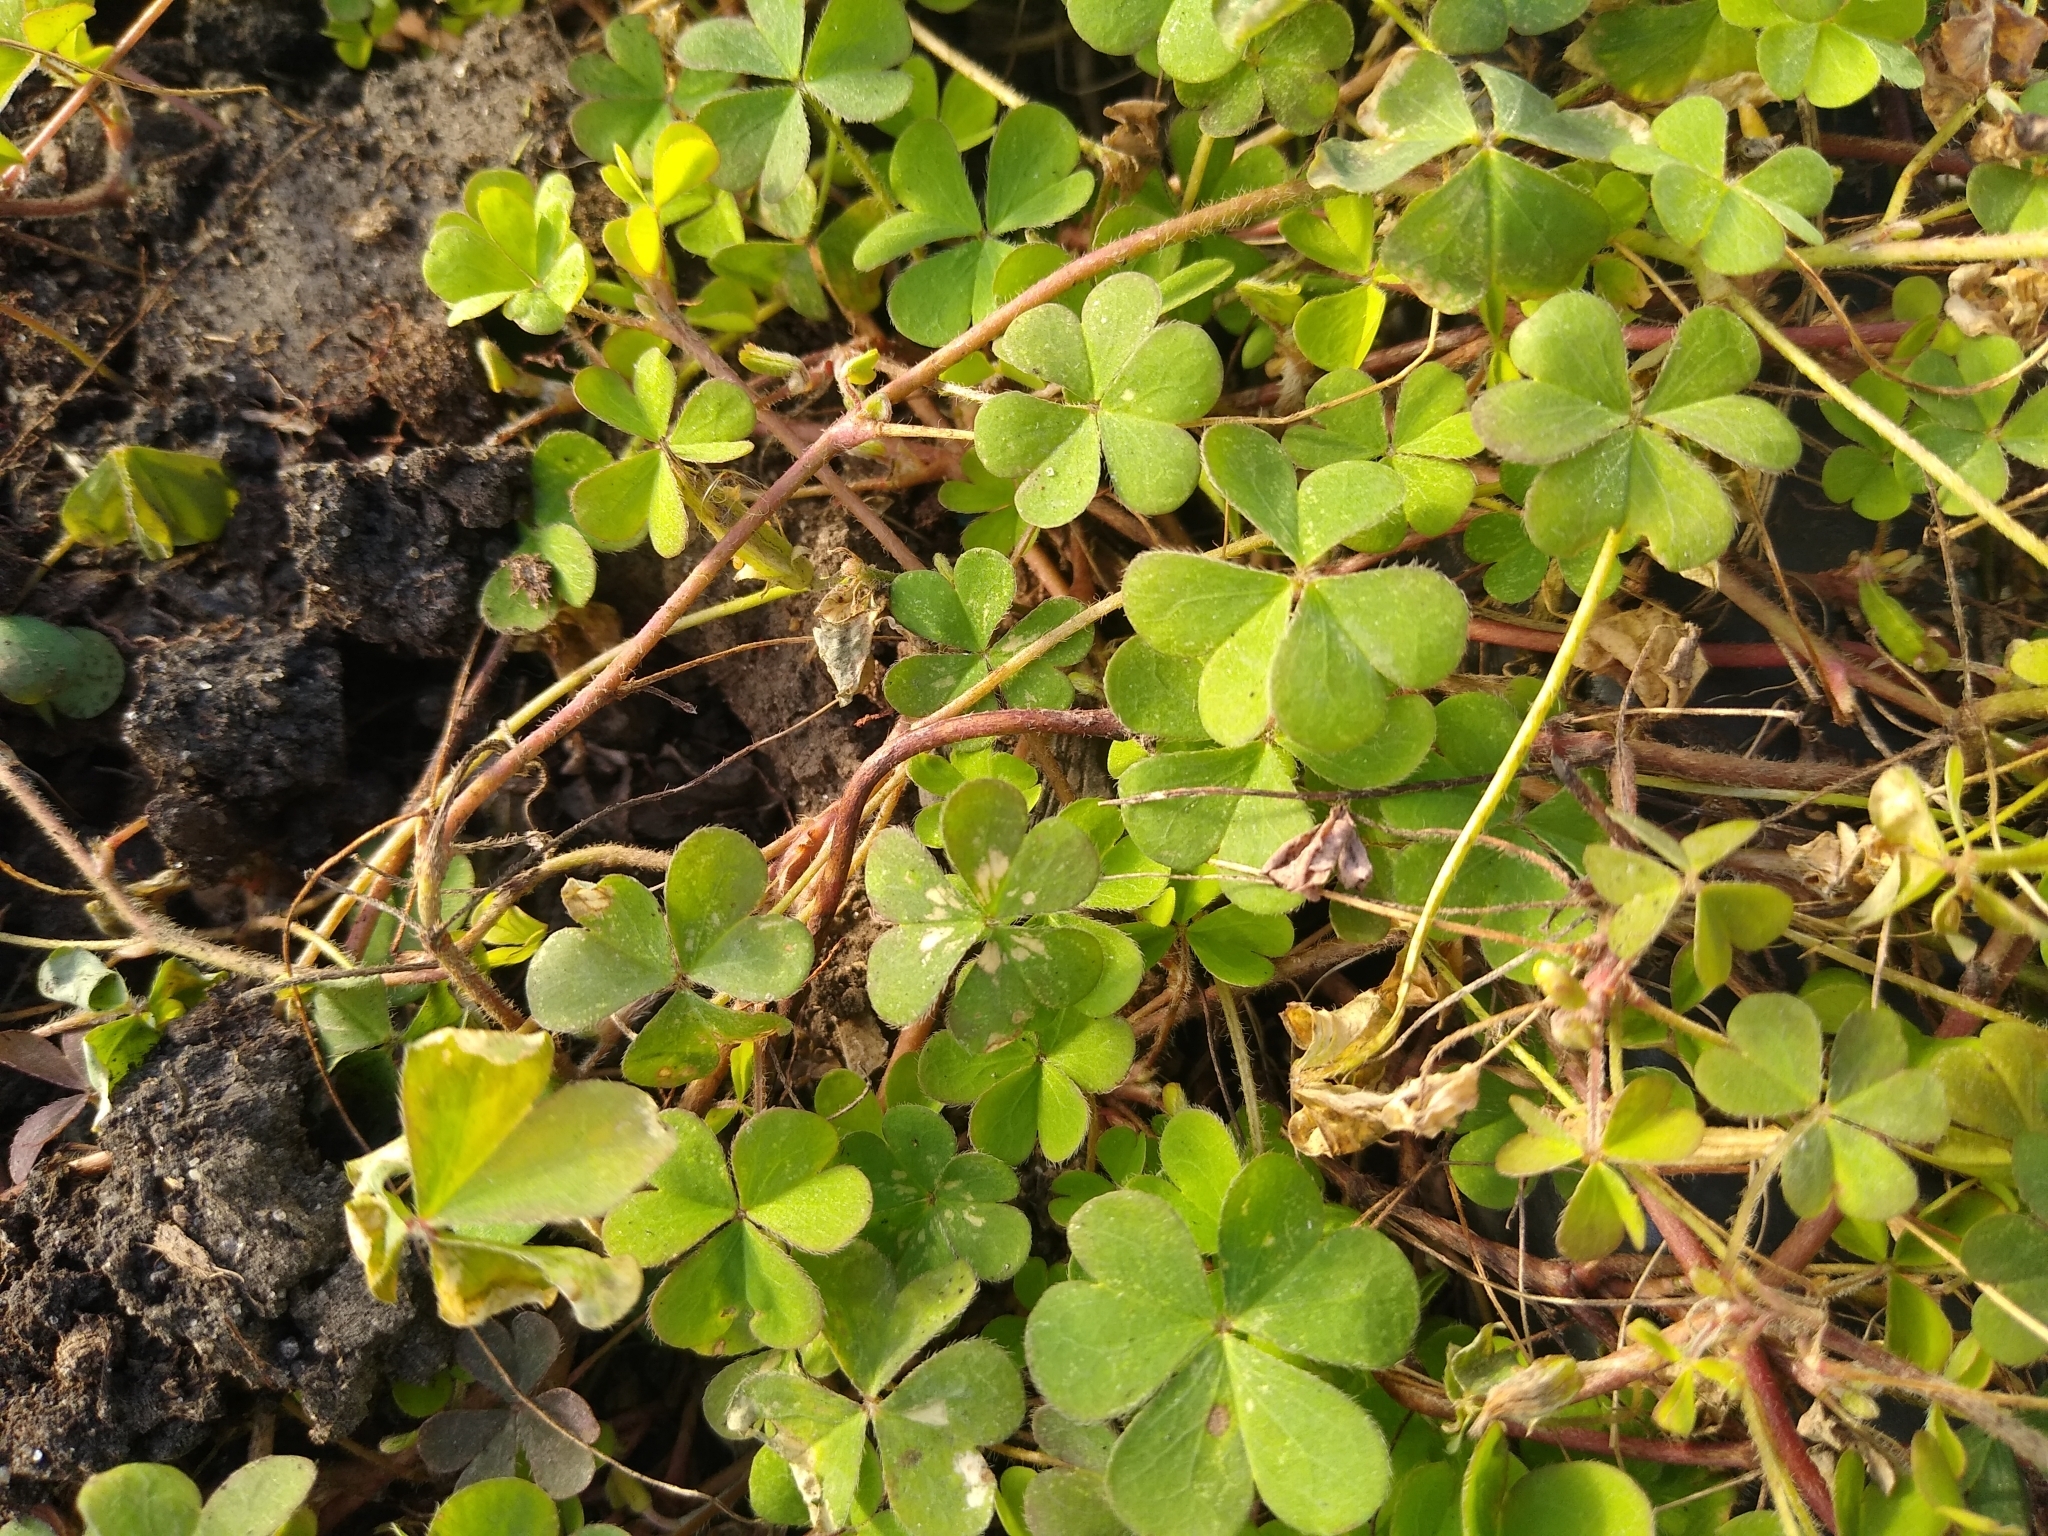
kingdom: Plantae
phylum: Tracheophyta
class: Magnoliopsida
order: Oxalidales
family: Oxalidaceae
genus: Oxalis
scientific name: Oxalis corniculata
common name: Procumbent yellow-sorrel
